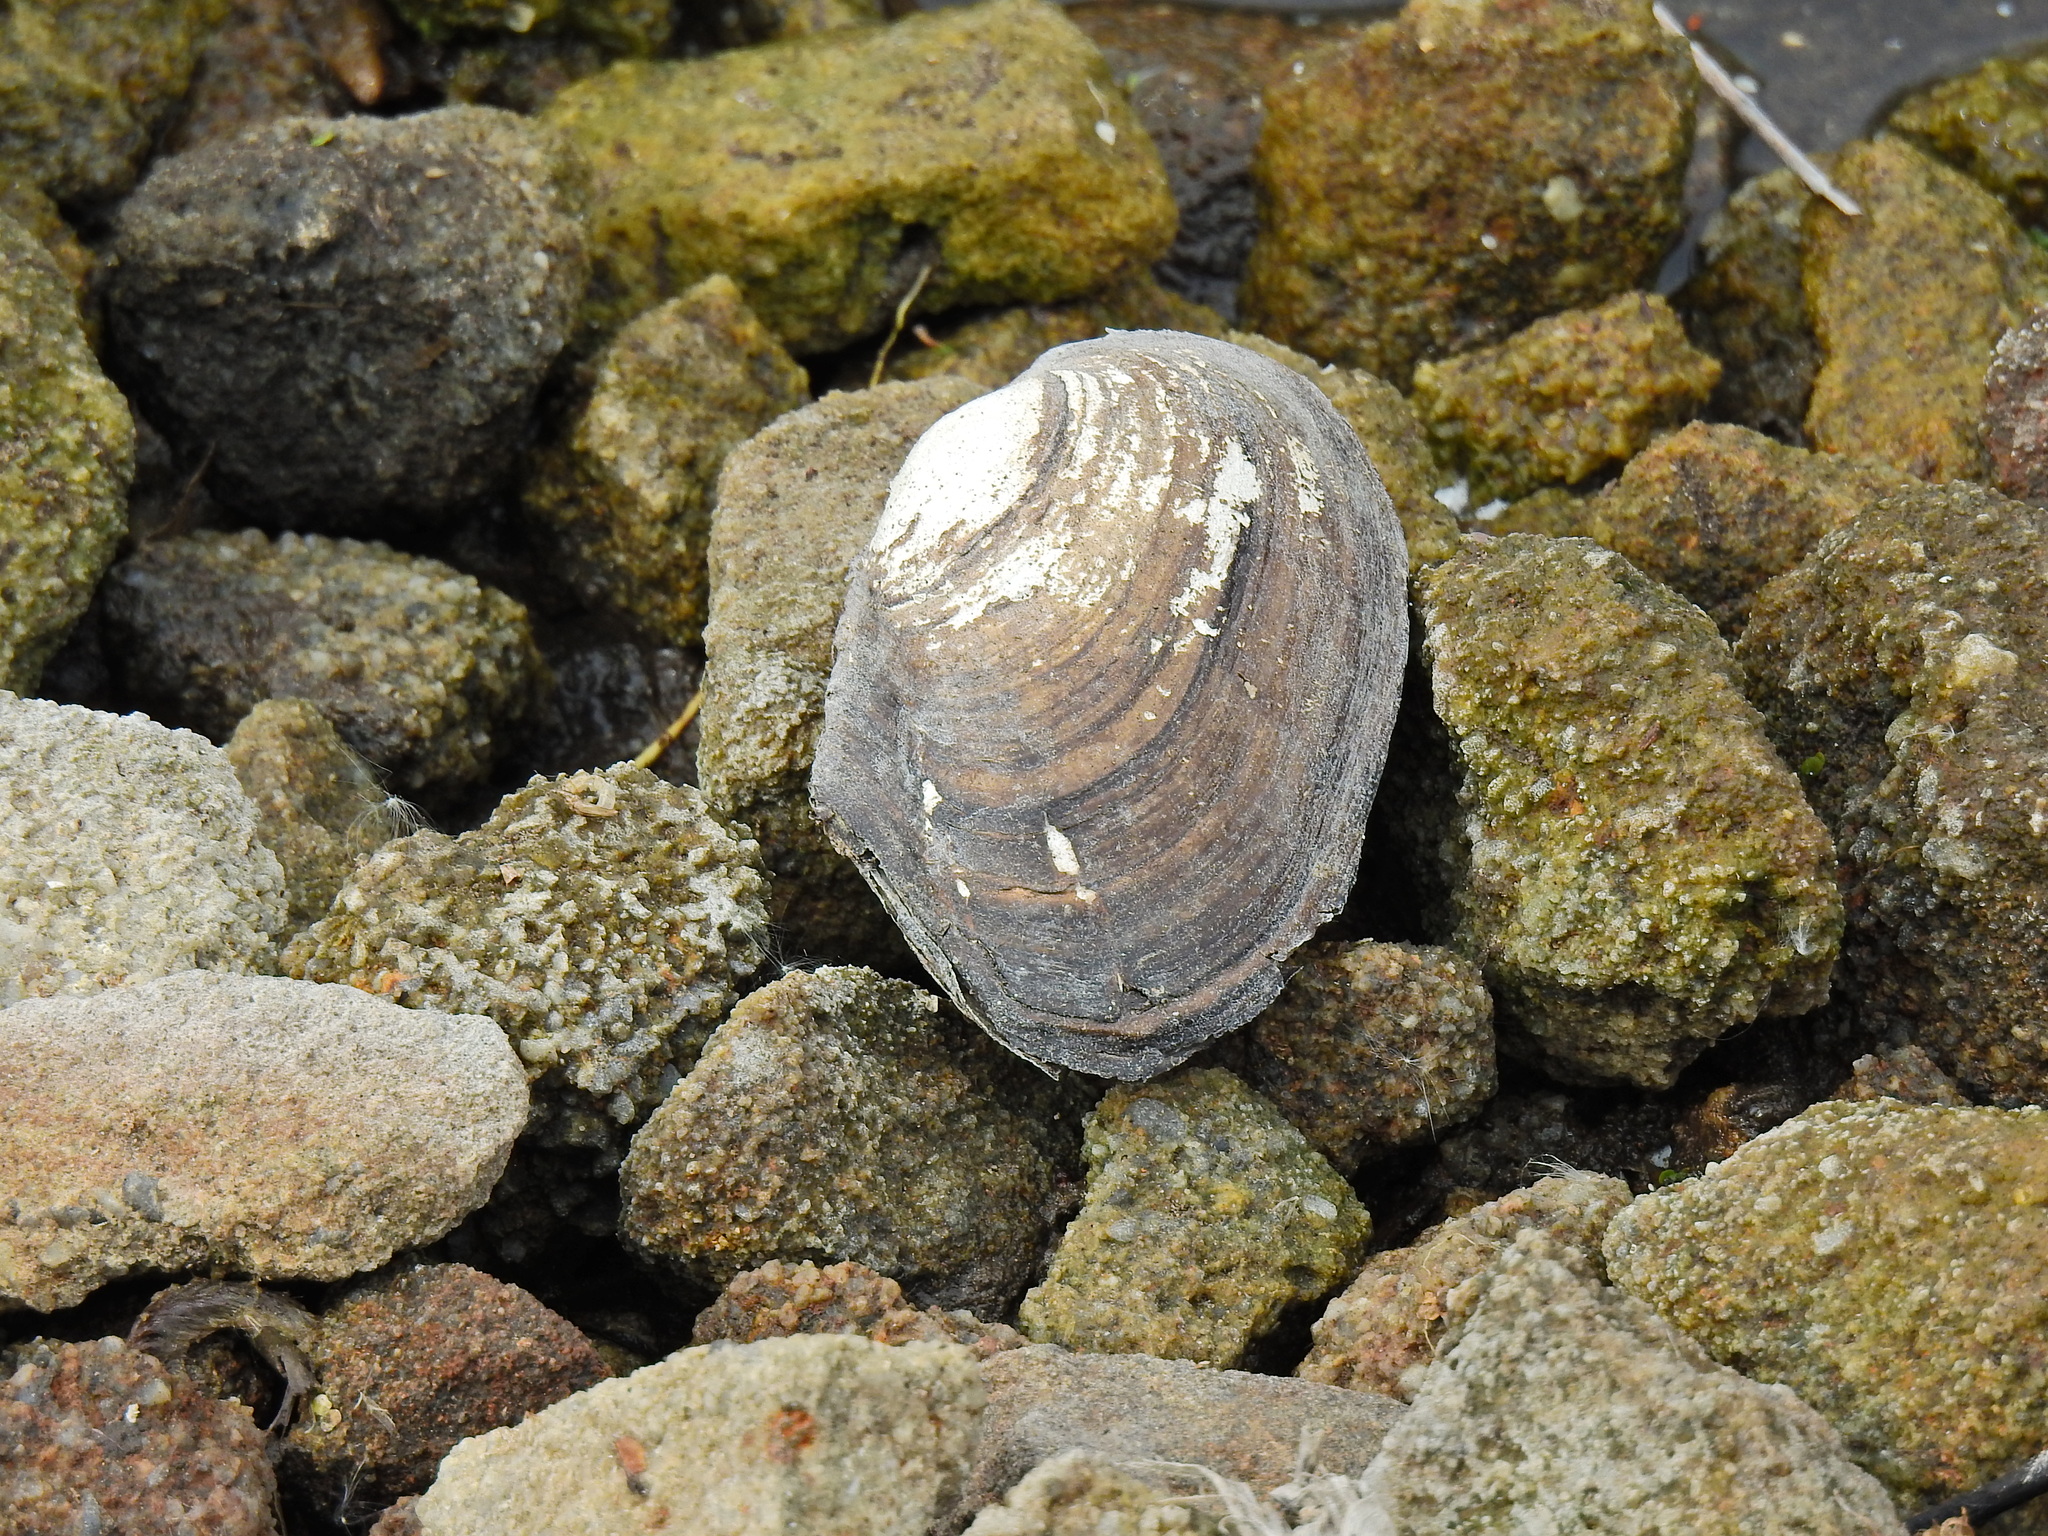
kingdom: Animalia
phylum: Mollusca
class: Bivalvia
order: Unionida
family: Unionidae
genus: Anodonta
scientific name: Anodonta anatina
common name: Duck mussel
